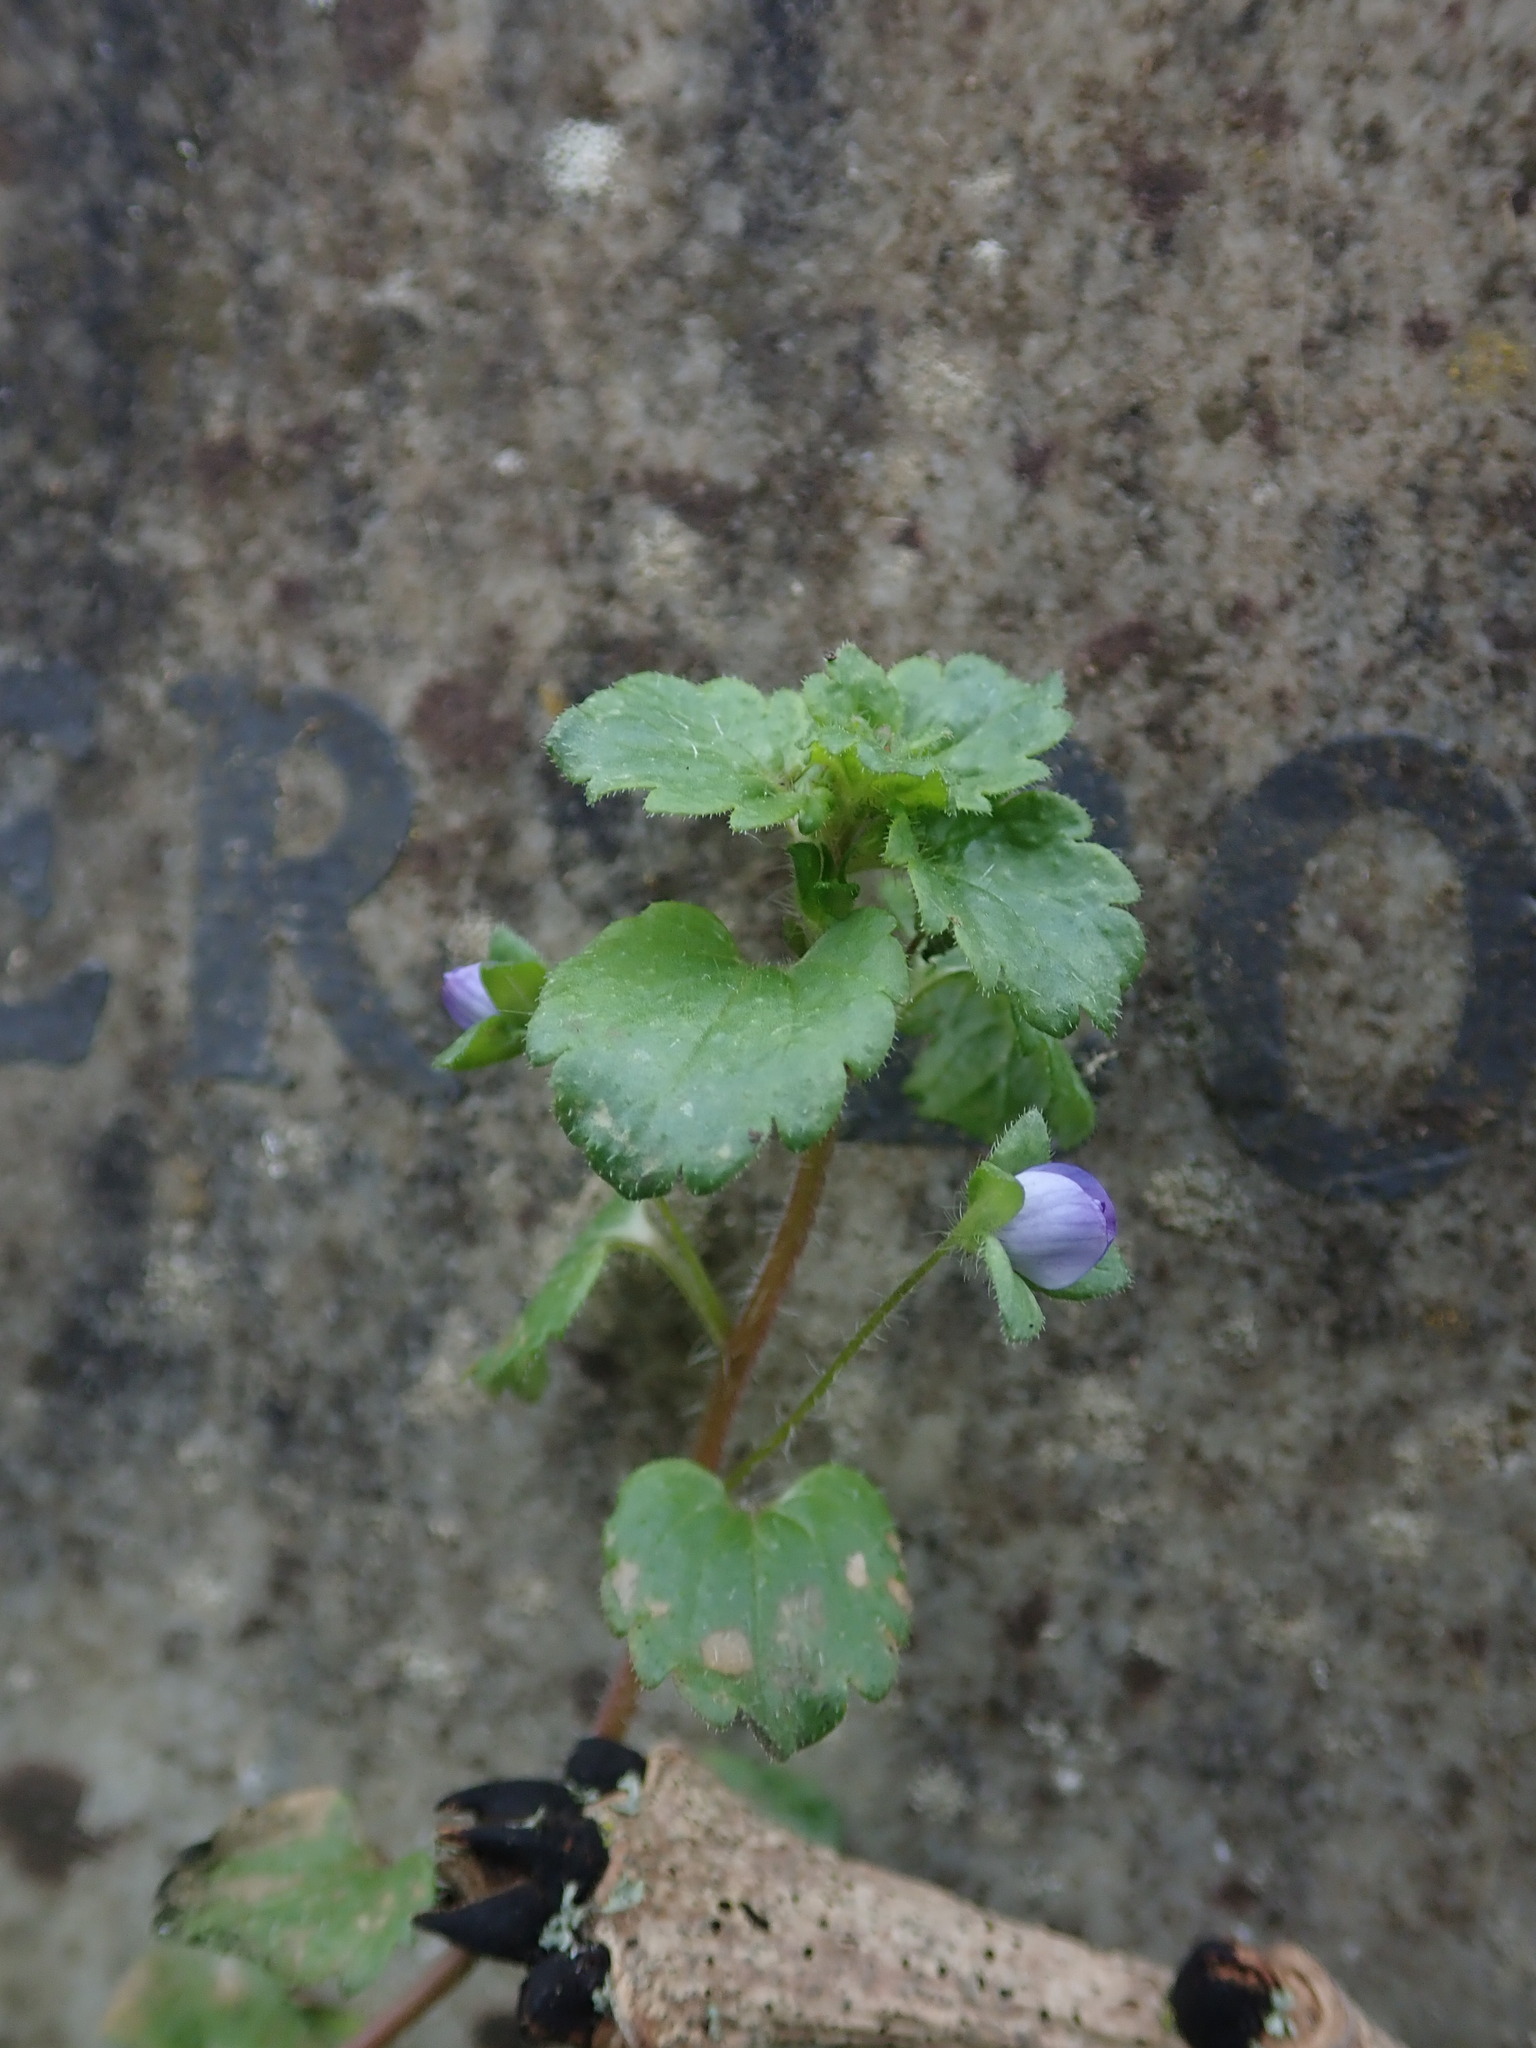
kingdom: Plantae
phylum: Tracheophyta
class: Magnoliopsida
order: Lamiales
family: Plantaginaceae
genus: Veronica
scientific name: Veronica persica
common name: Common field-speedwell
